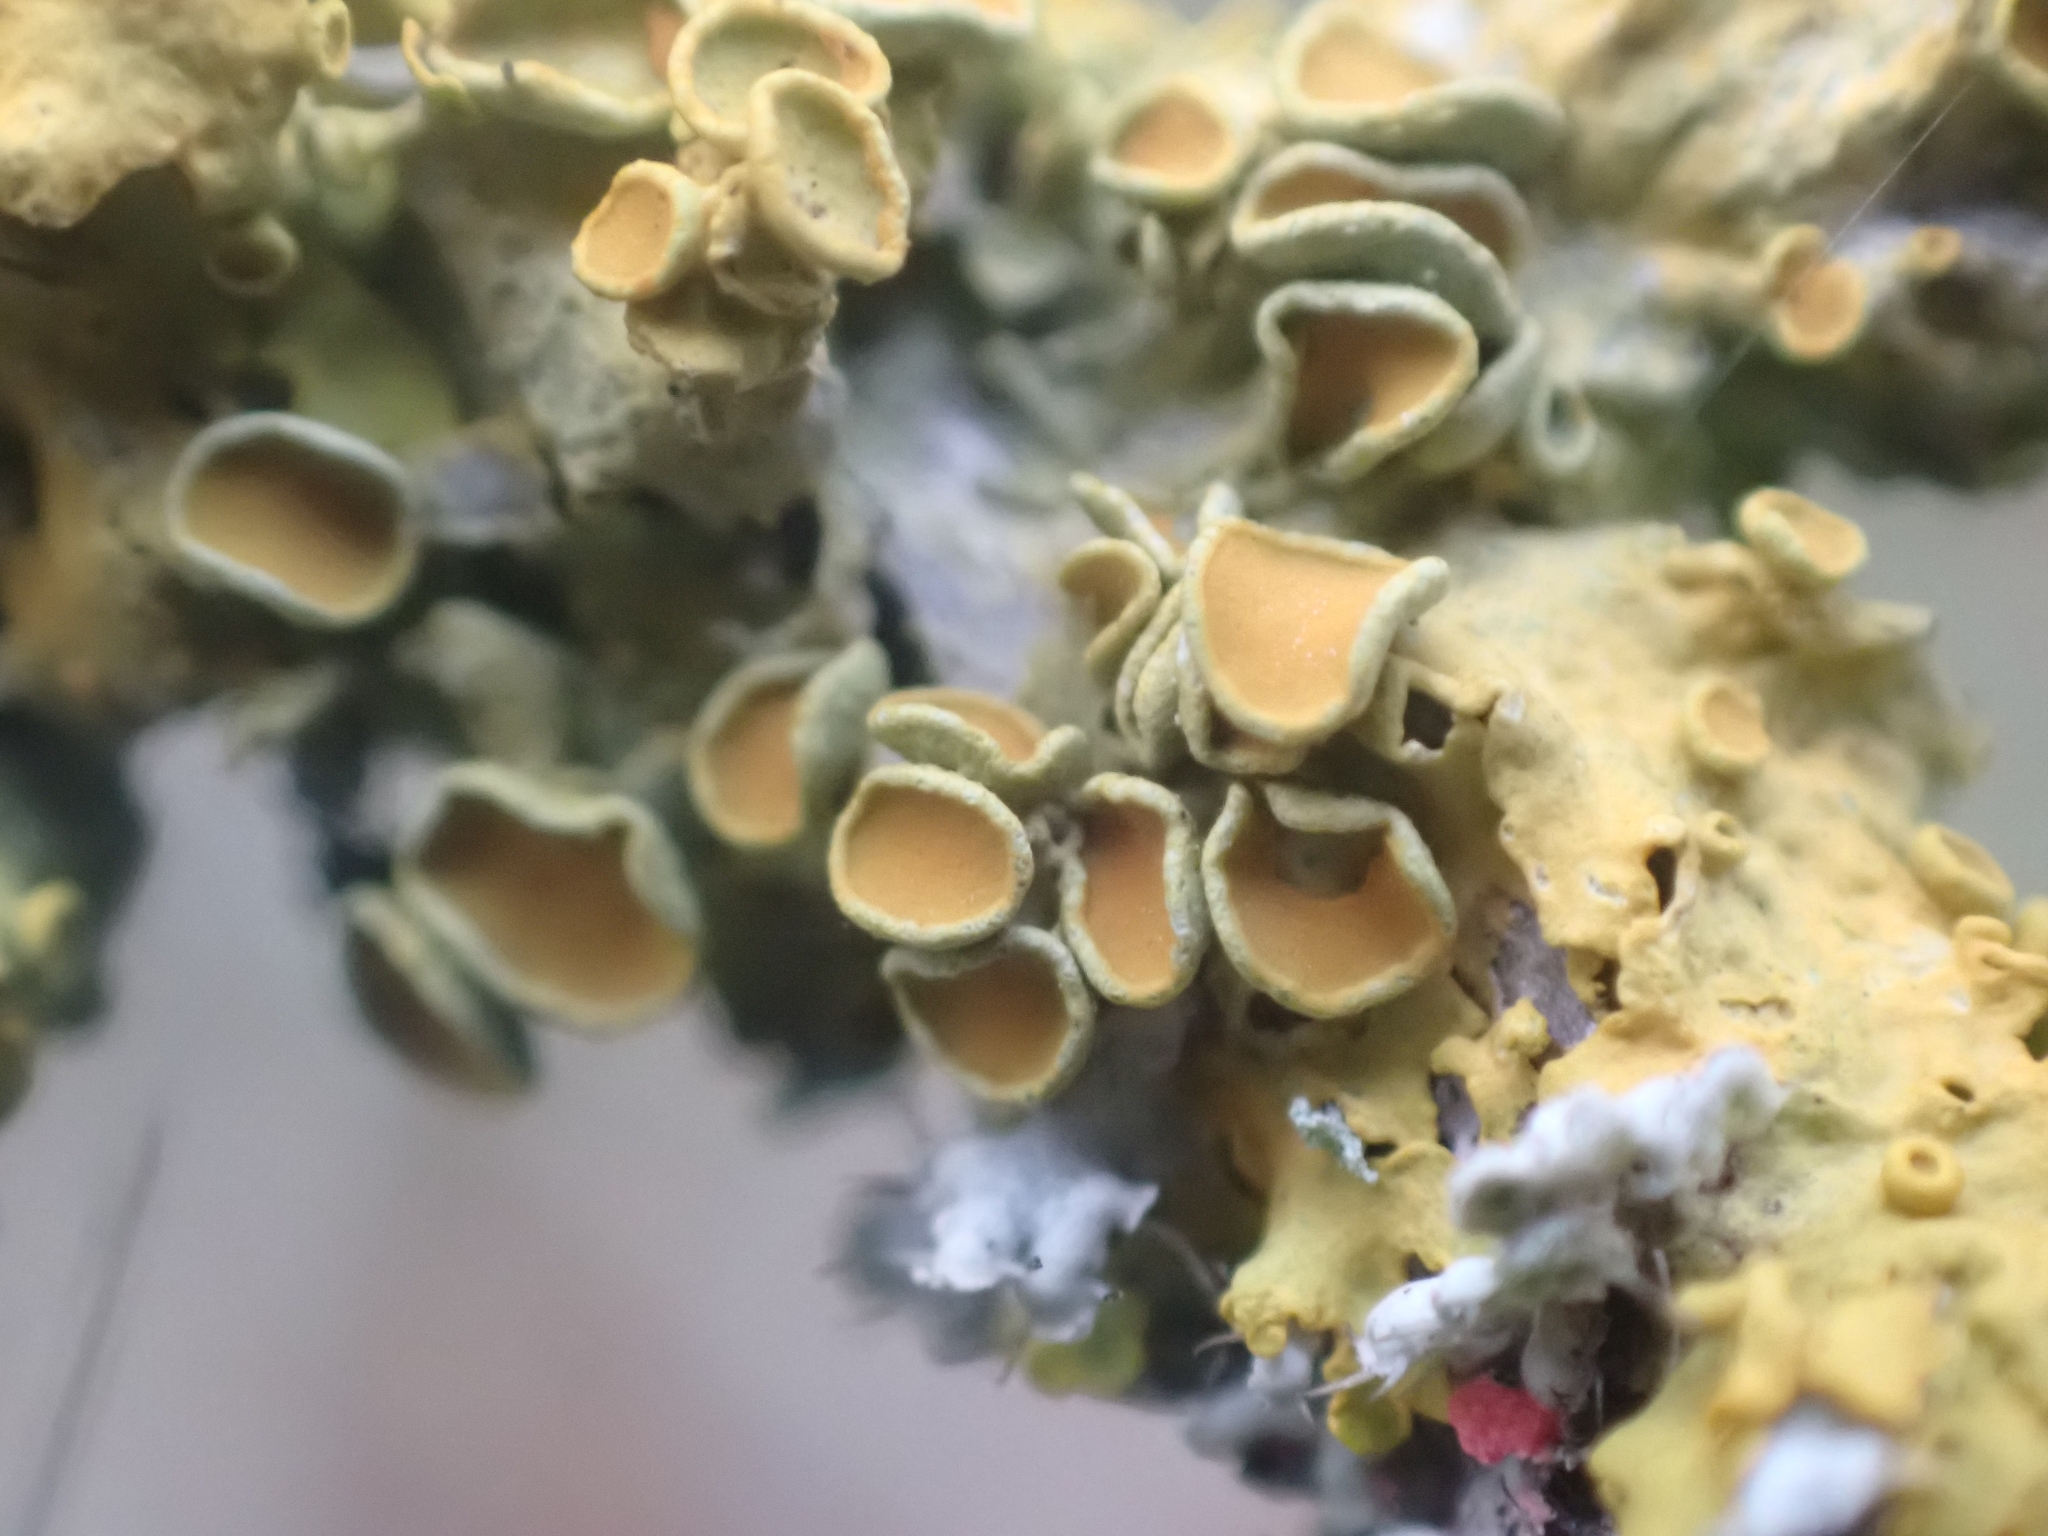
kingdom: Fungi
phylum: Ascomycota
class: Lecanoromycetes
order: Teloschistales
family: Teloschistaceae
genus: Xanthoria
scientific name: Xanthoria parietina
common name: Common orange lichen
